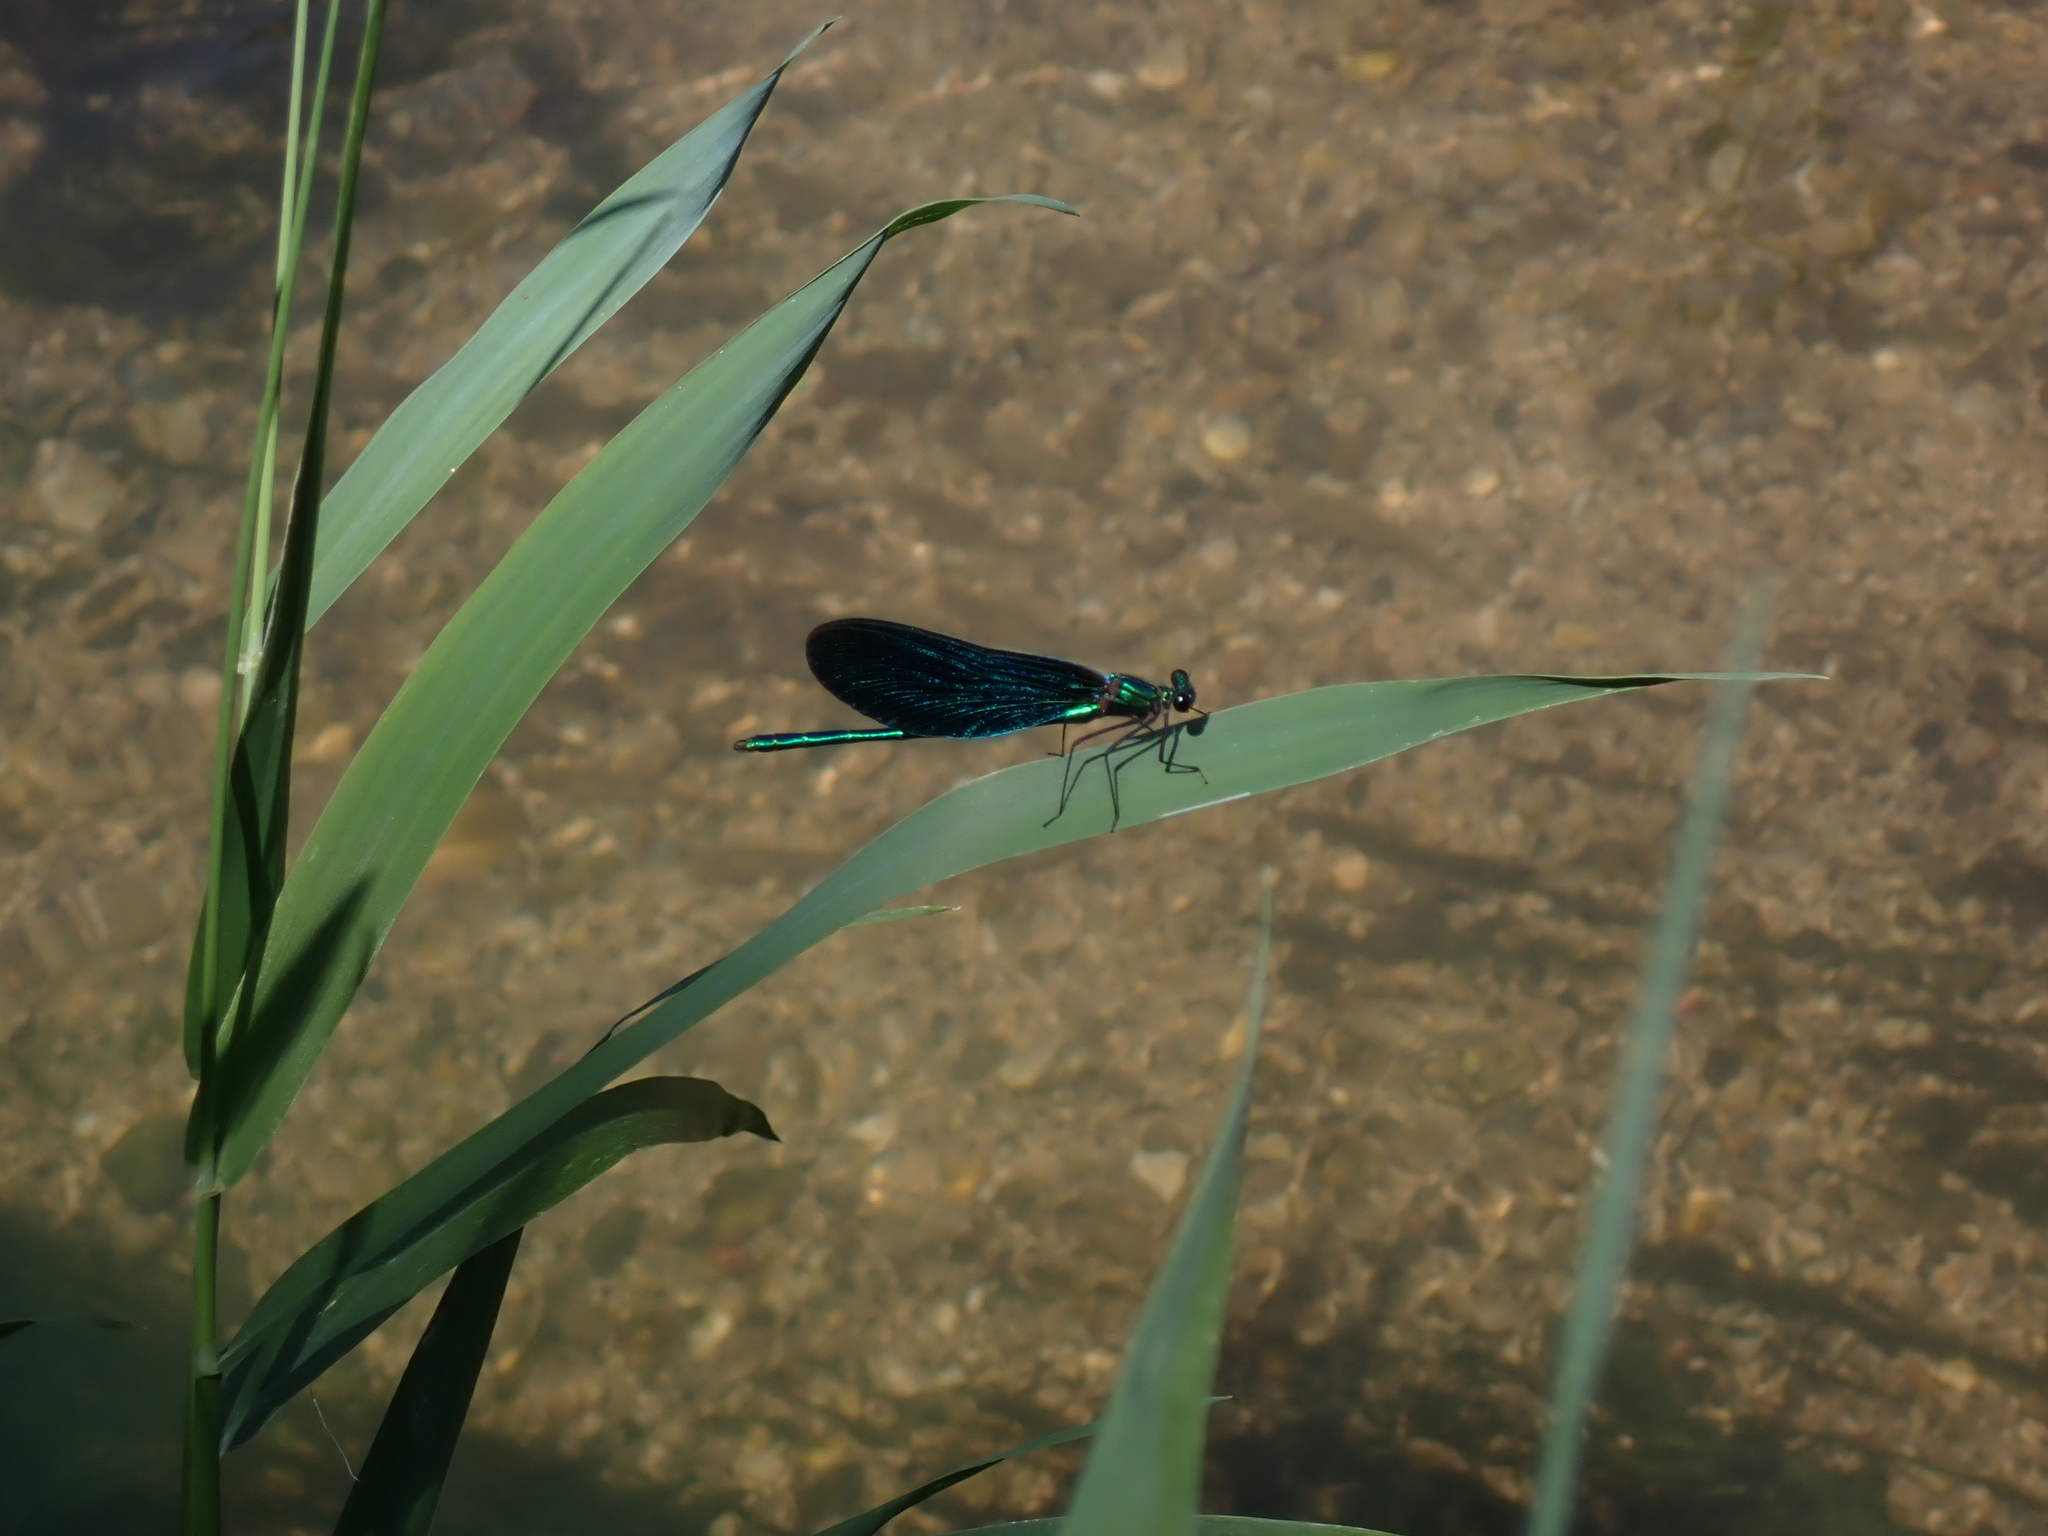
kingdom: Animalia
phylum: Arthropoda
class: Insecta
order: Odonata
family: Calopterygidae
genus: Calopteryx
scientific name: Calopteryx virgo
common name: Beautiful demoiselle
